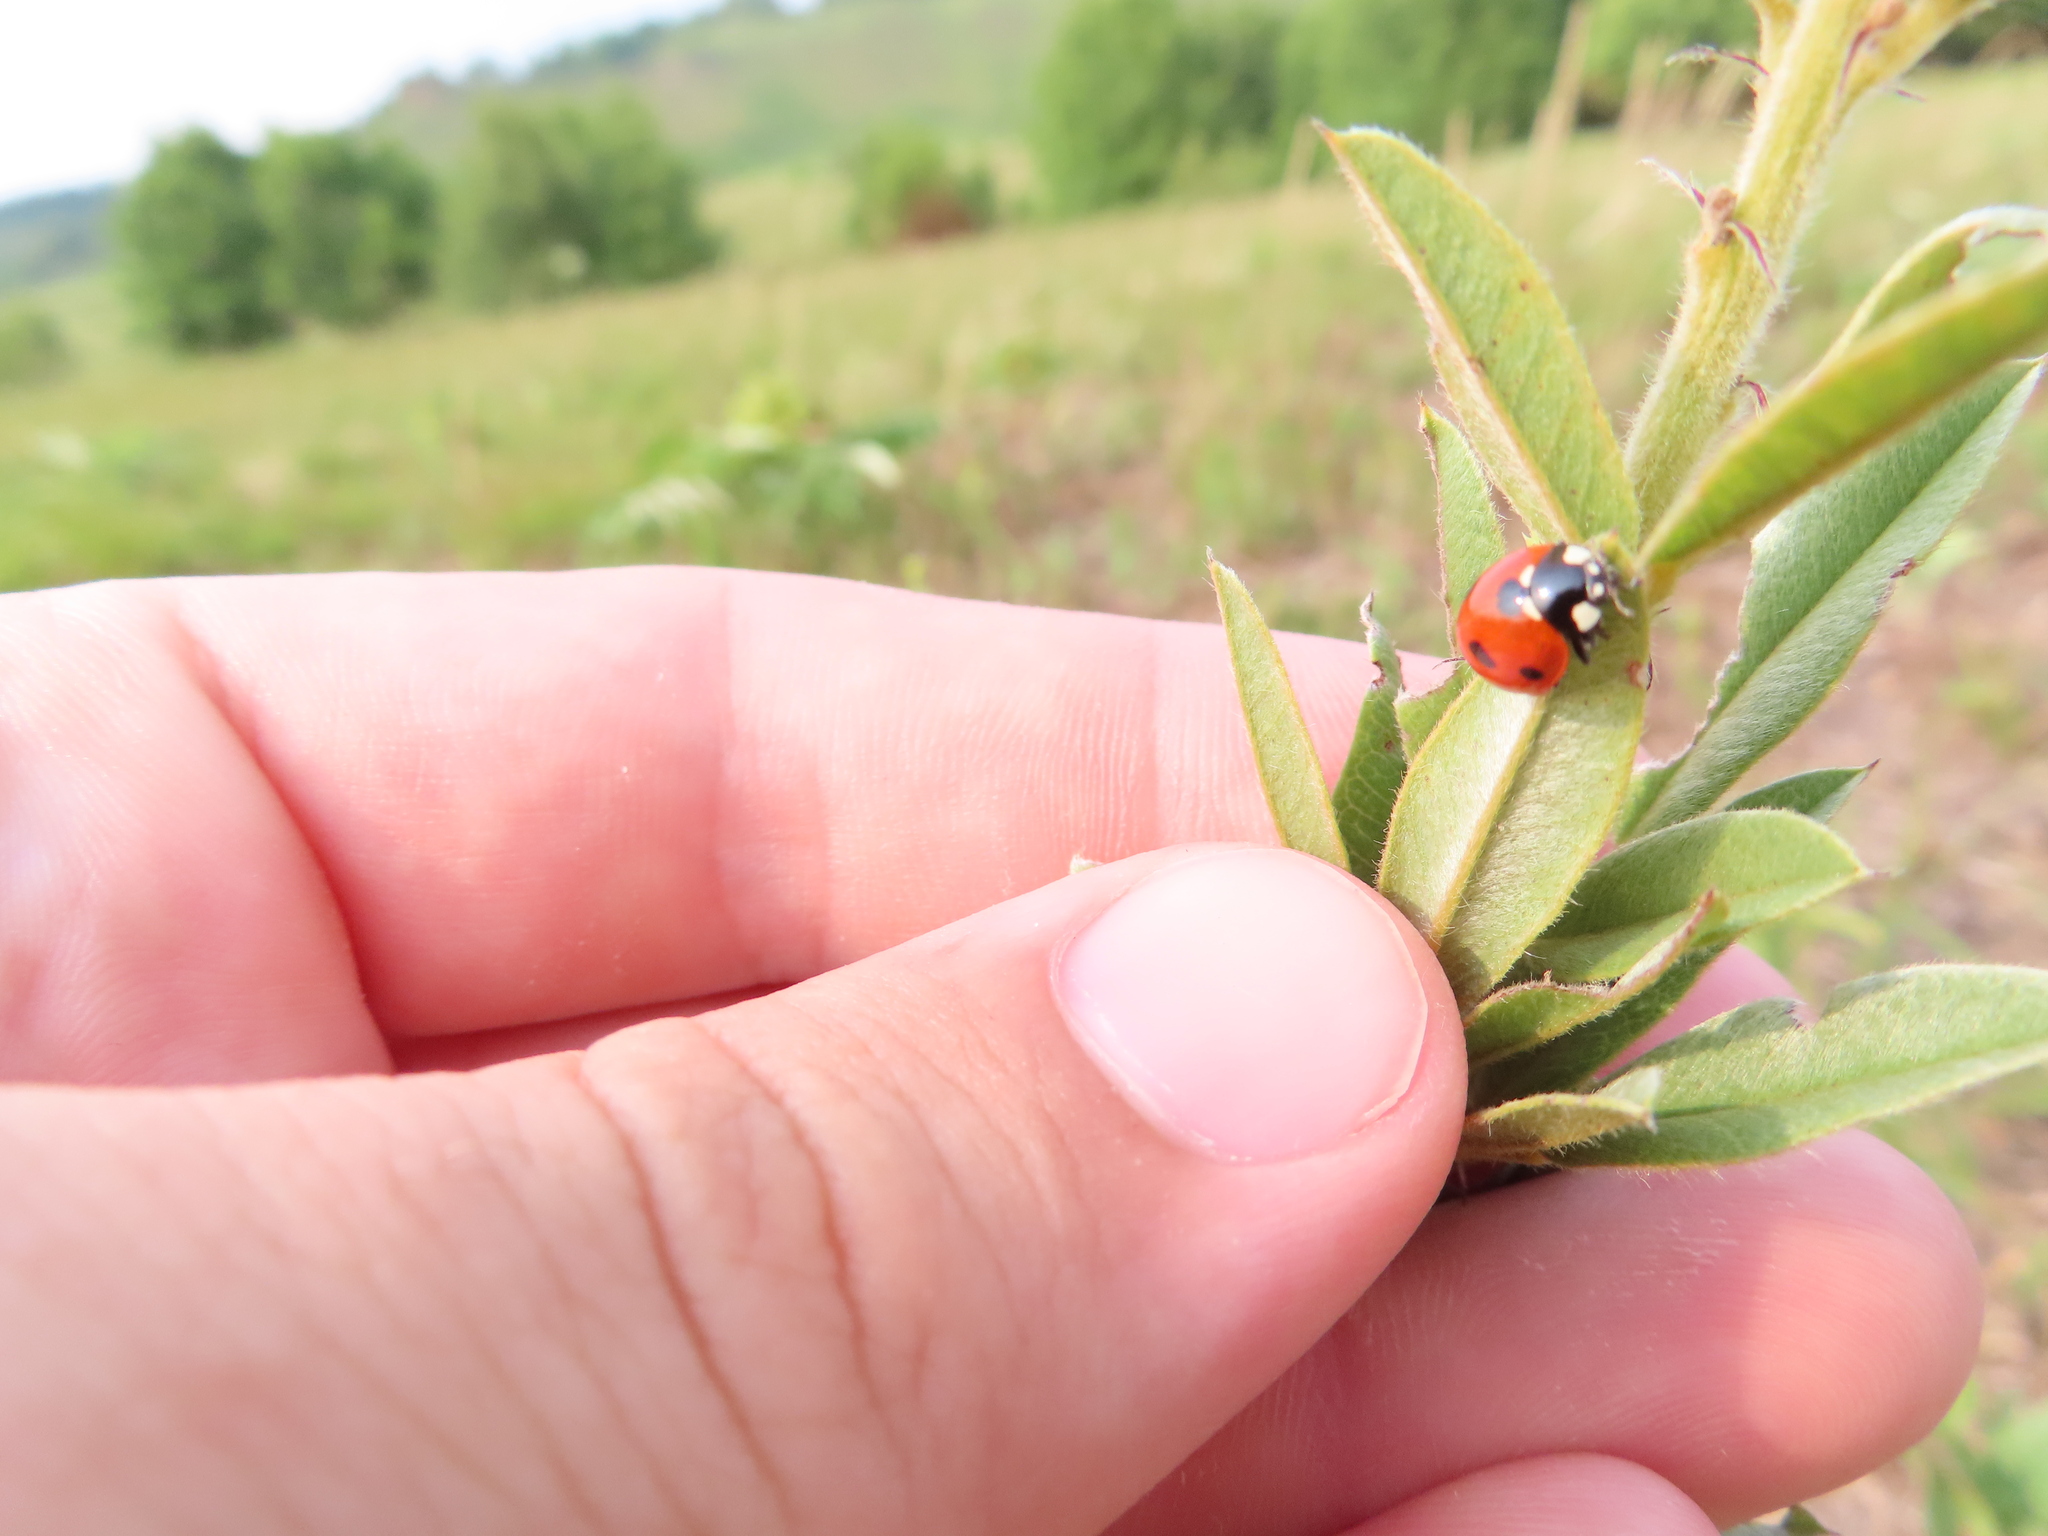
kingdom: Animalia
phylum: Arthropoda
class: Insecta
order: Coleoptera
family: Coccinellidae
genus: Coccinella
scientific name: Coccinella septempunctata
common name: Sevenspotted lady beetle
